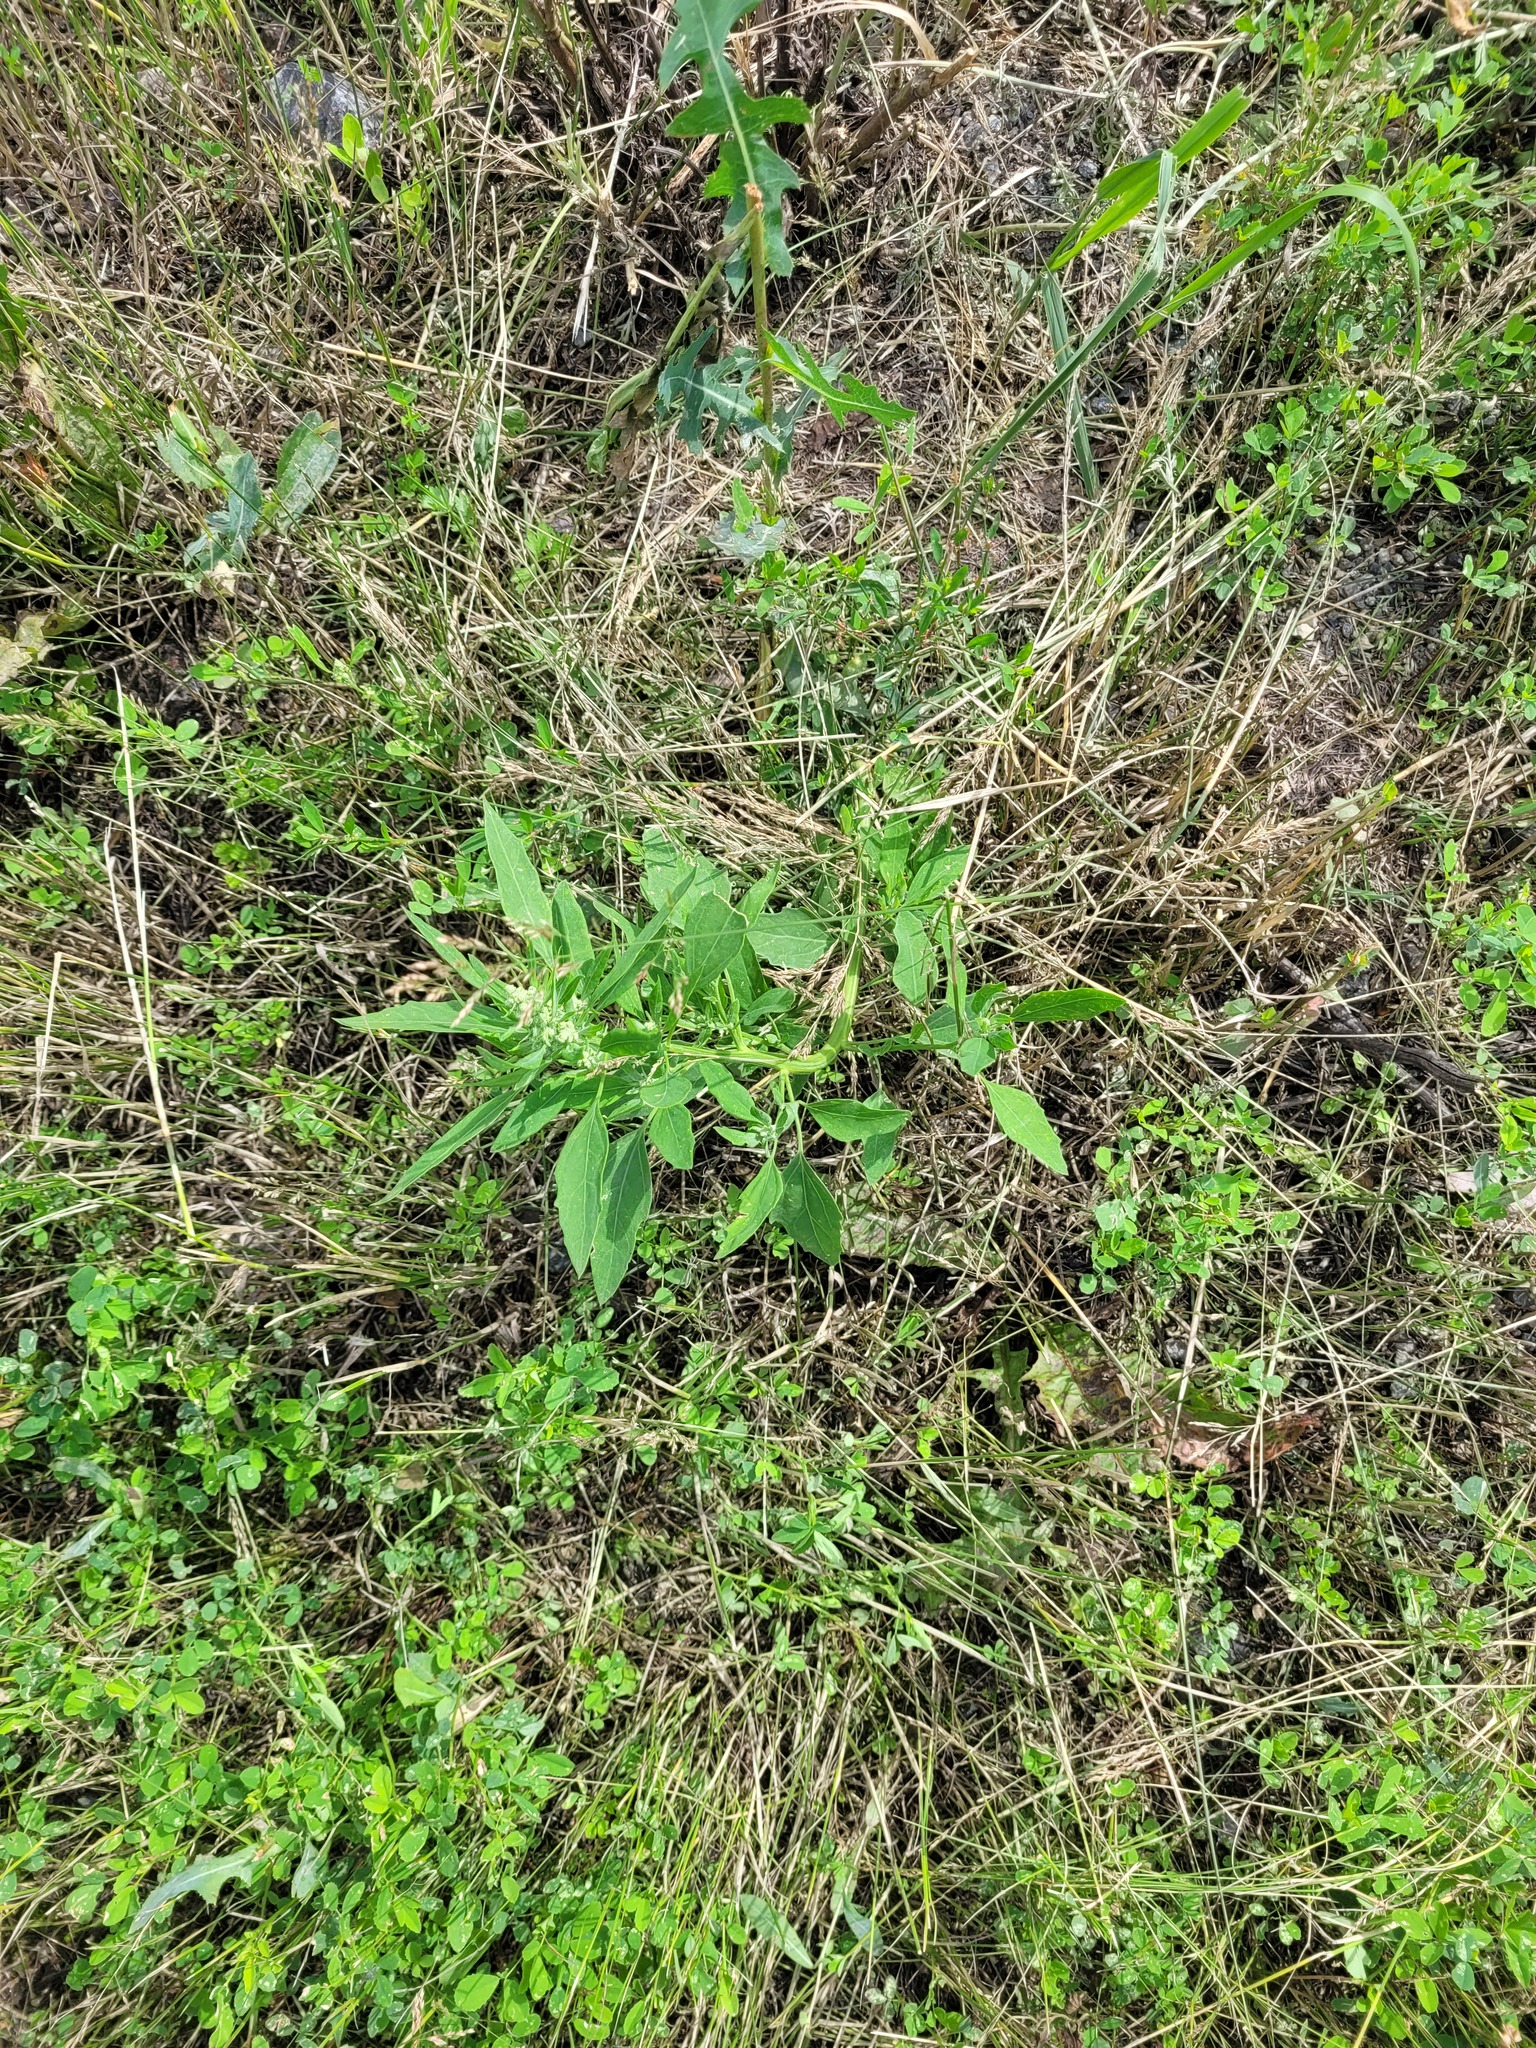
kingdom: Plantae
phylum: Tracheophyta
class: Magnoliopsida
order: Caryophyllales
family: Amaranthaceae
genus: Chenopodium
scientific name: Chenopodium album
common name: Fat-hen
